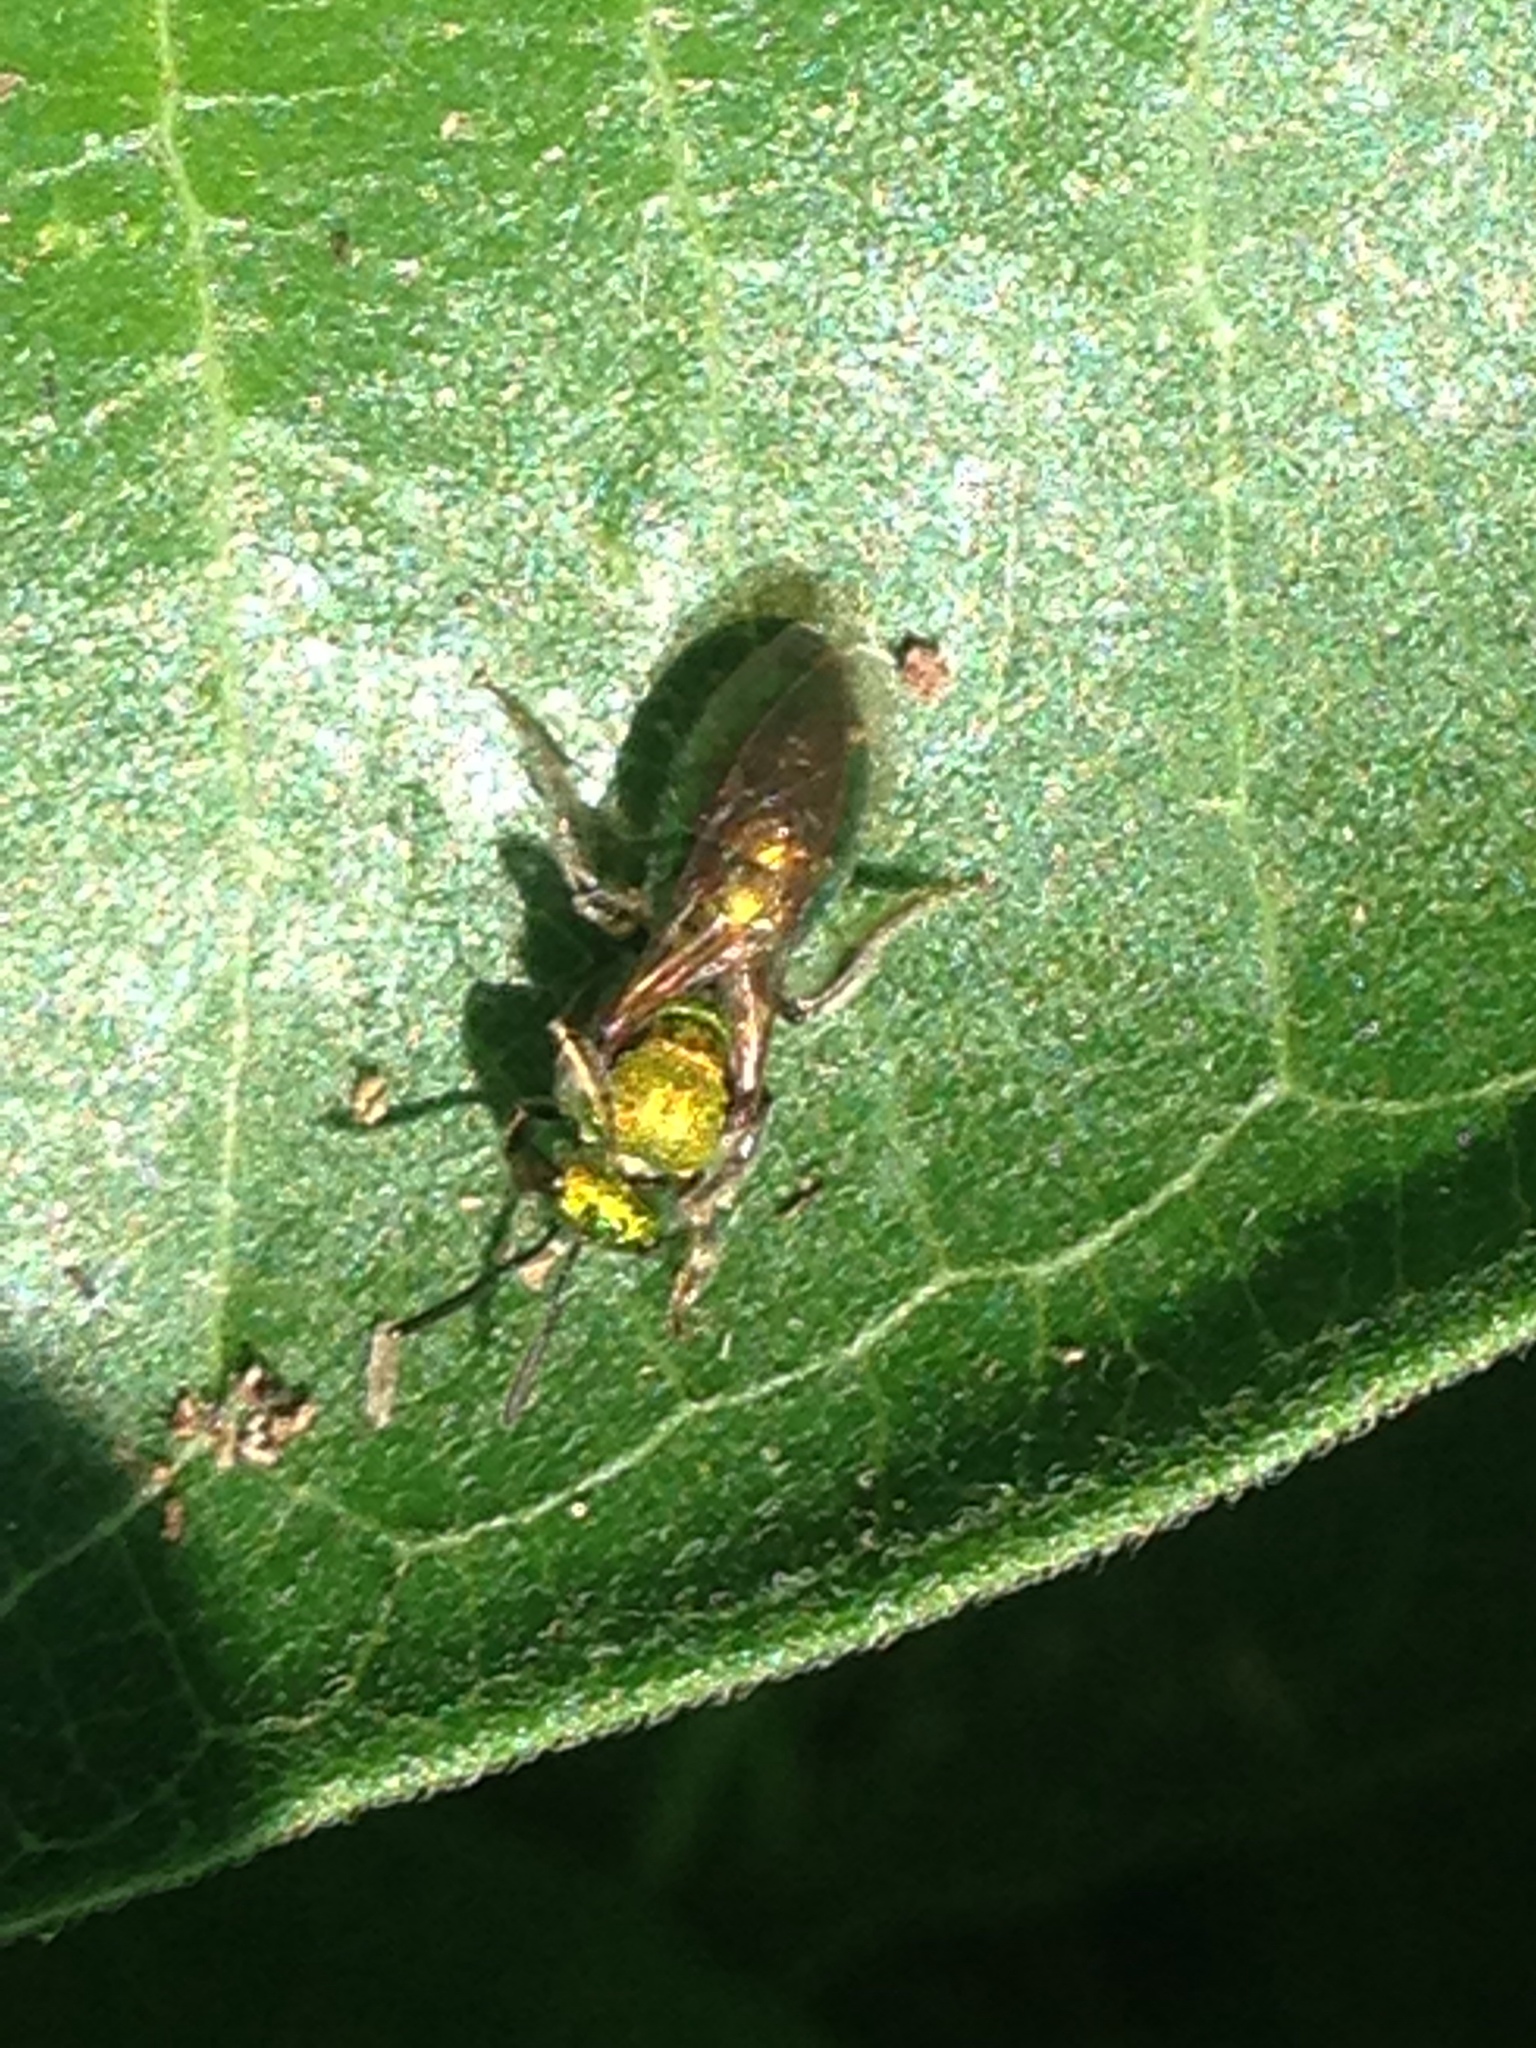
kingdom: Animalia
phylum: Arthropoda
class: Insecta
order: Hymenoptera
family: Halictidae
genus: Augochlorella
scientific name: Augochlorella aurata
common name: Golden sweat bee
